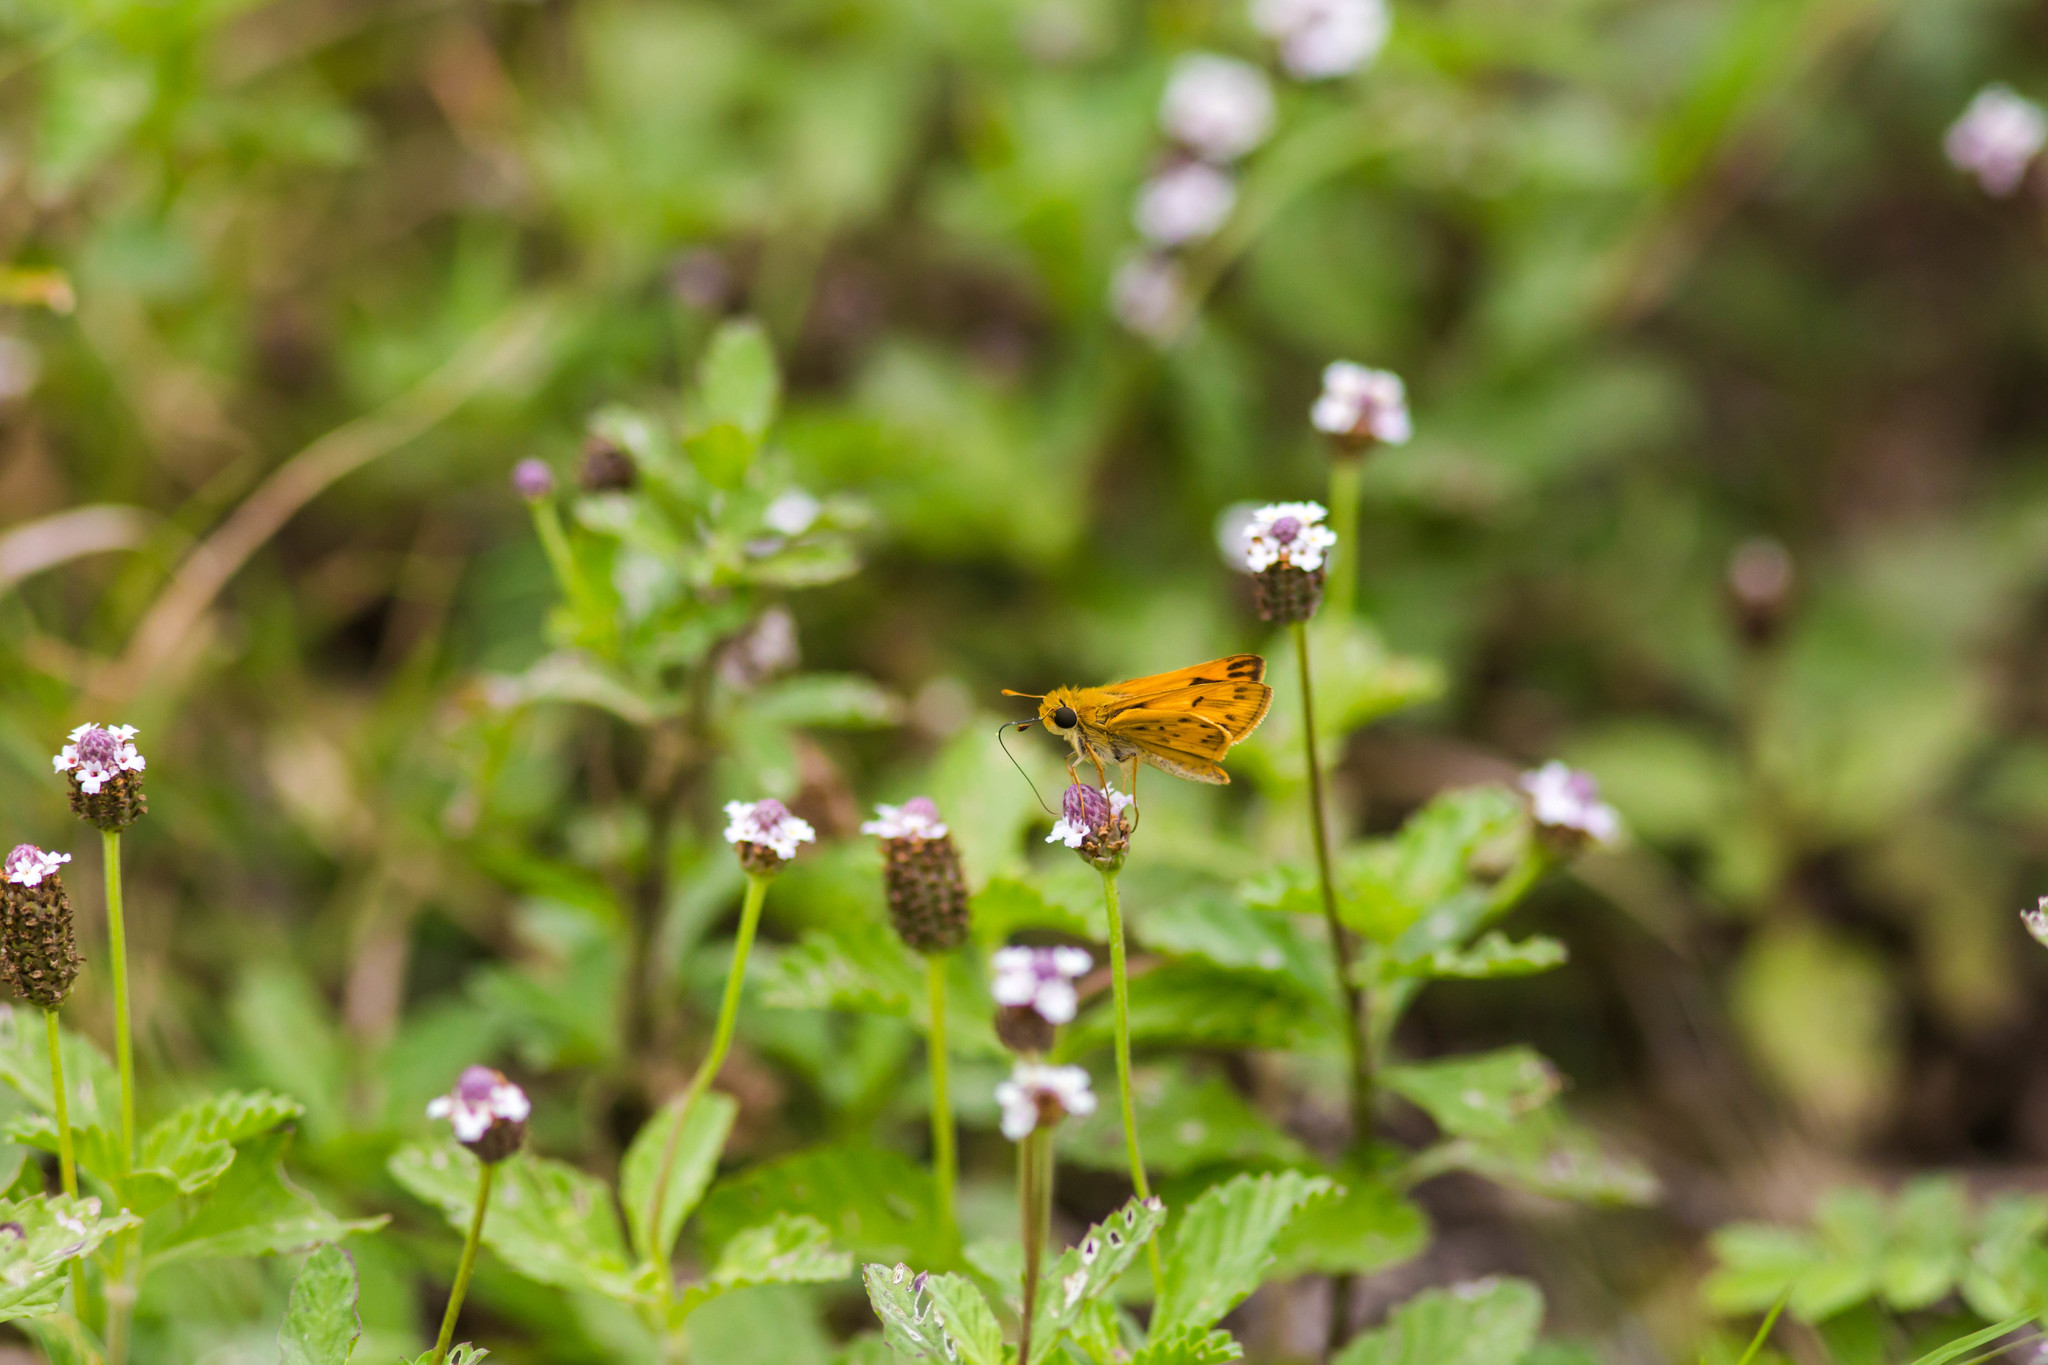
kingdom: Animalia
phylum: Arthropoda
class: Insecta
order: Lepidoptera
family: Hesperiidae
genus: Hylephila
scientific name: Hylephila phyleus
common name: Fiery skipper
